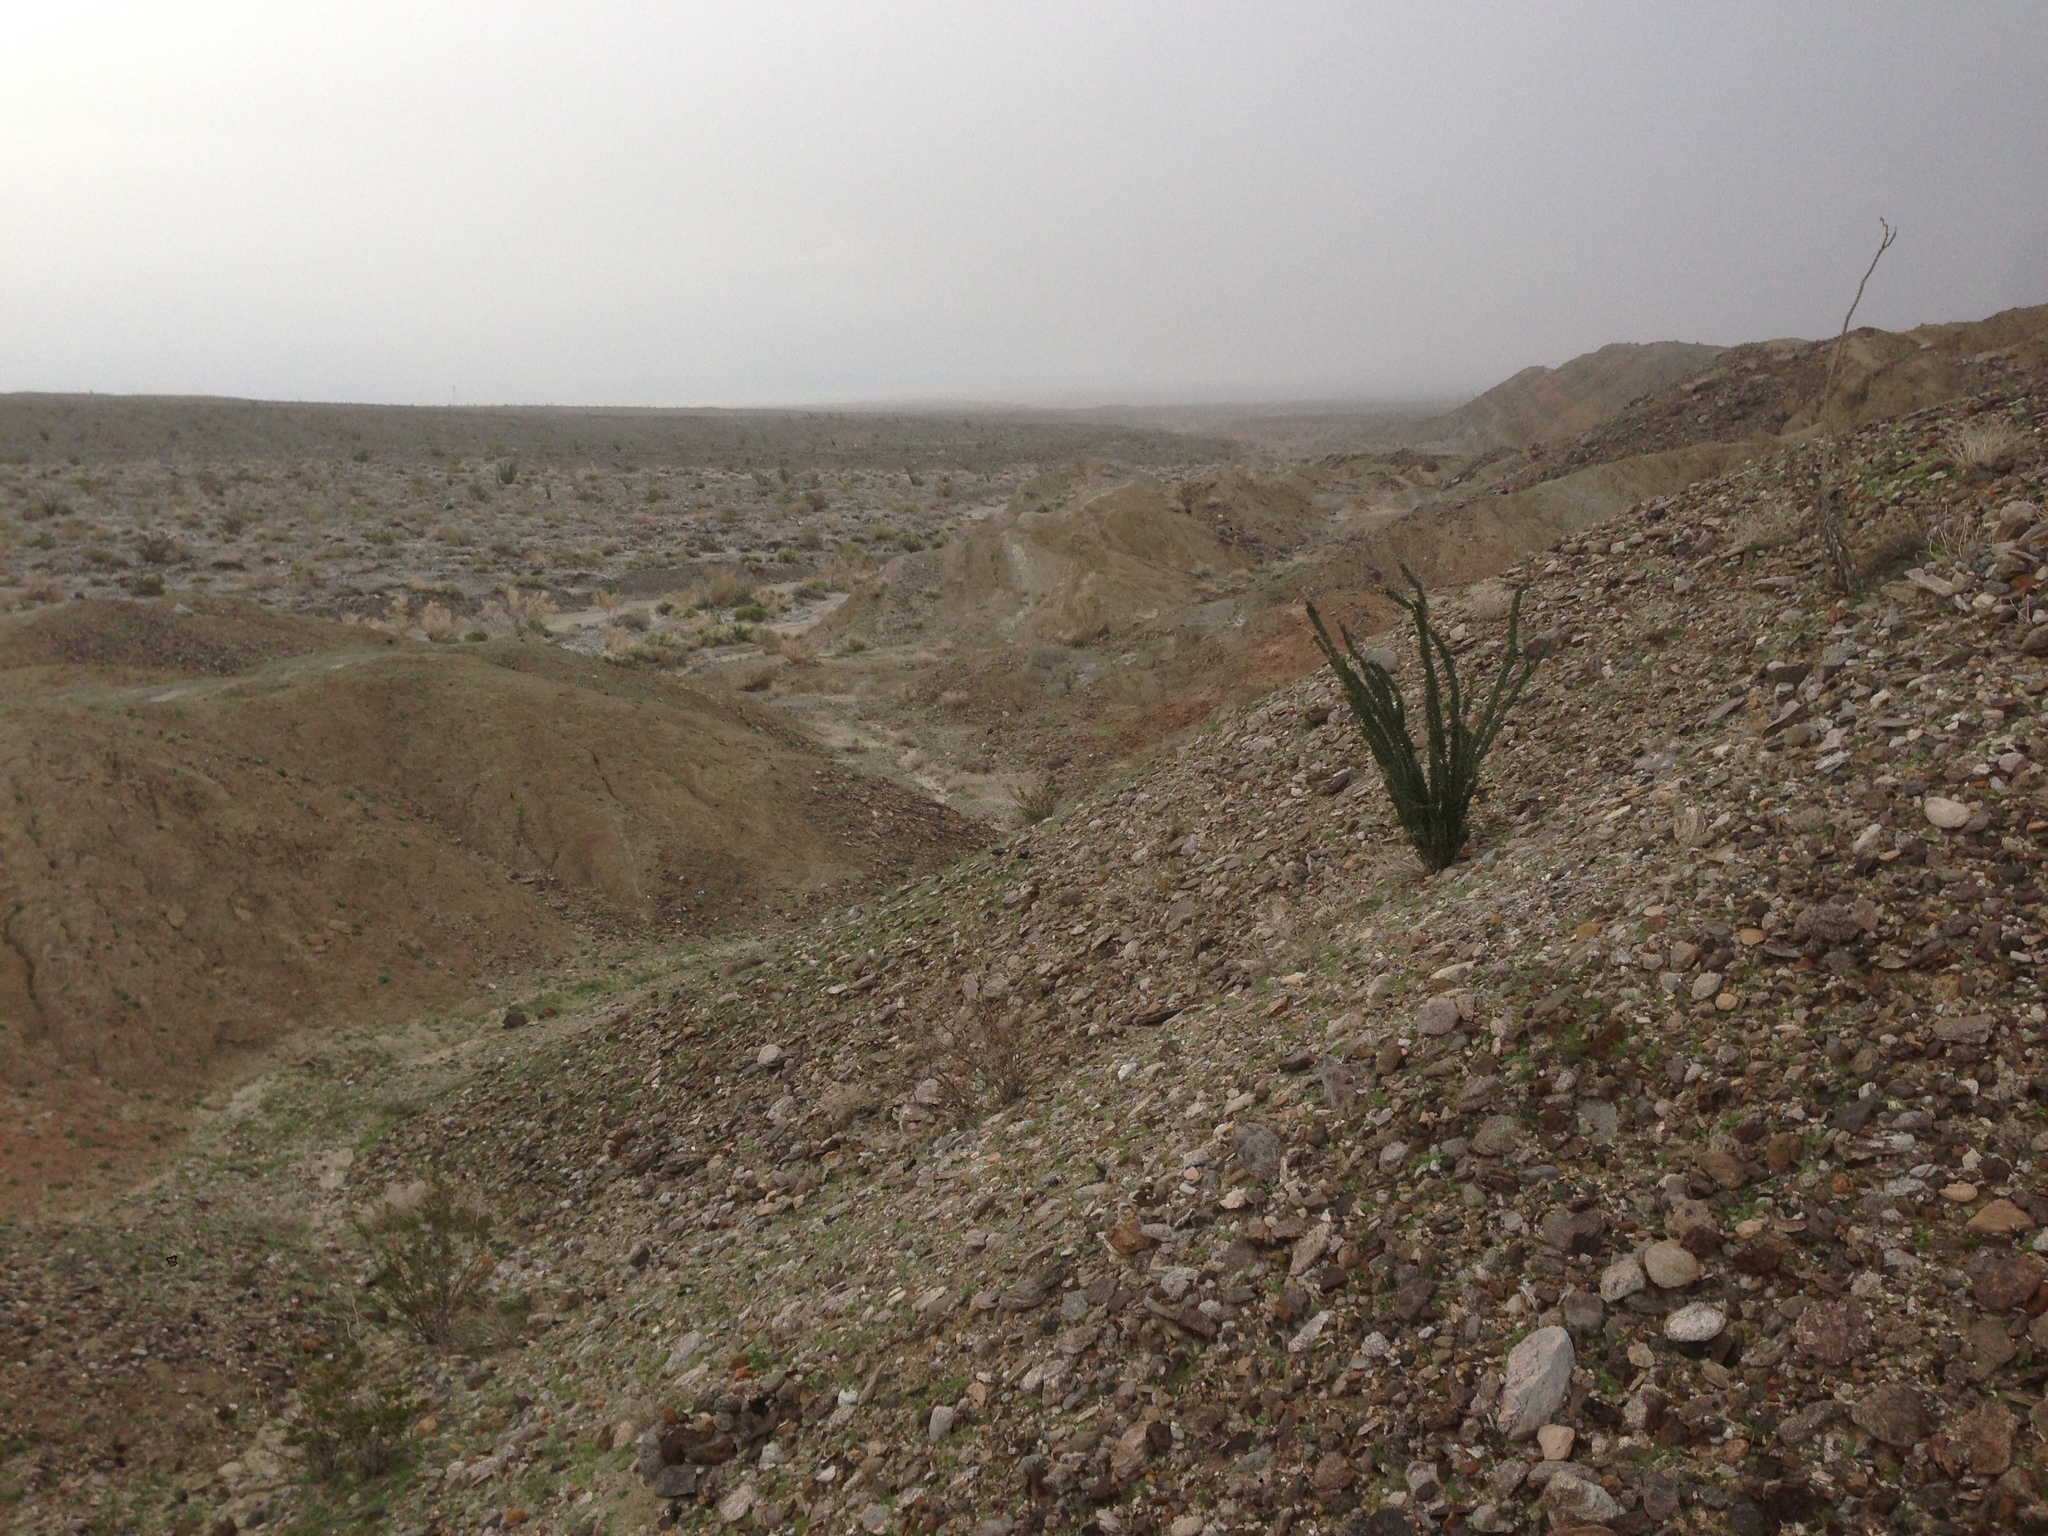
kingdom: Plantae
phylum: Tracheophyta
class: Magnoliopsida
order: Ericales
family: Fouquieriaceae
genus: Fouquieria
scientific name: Fouquieria splendens
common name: Vine-cactus
